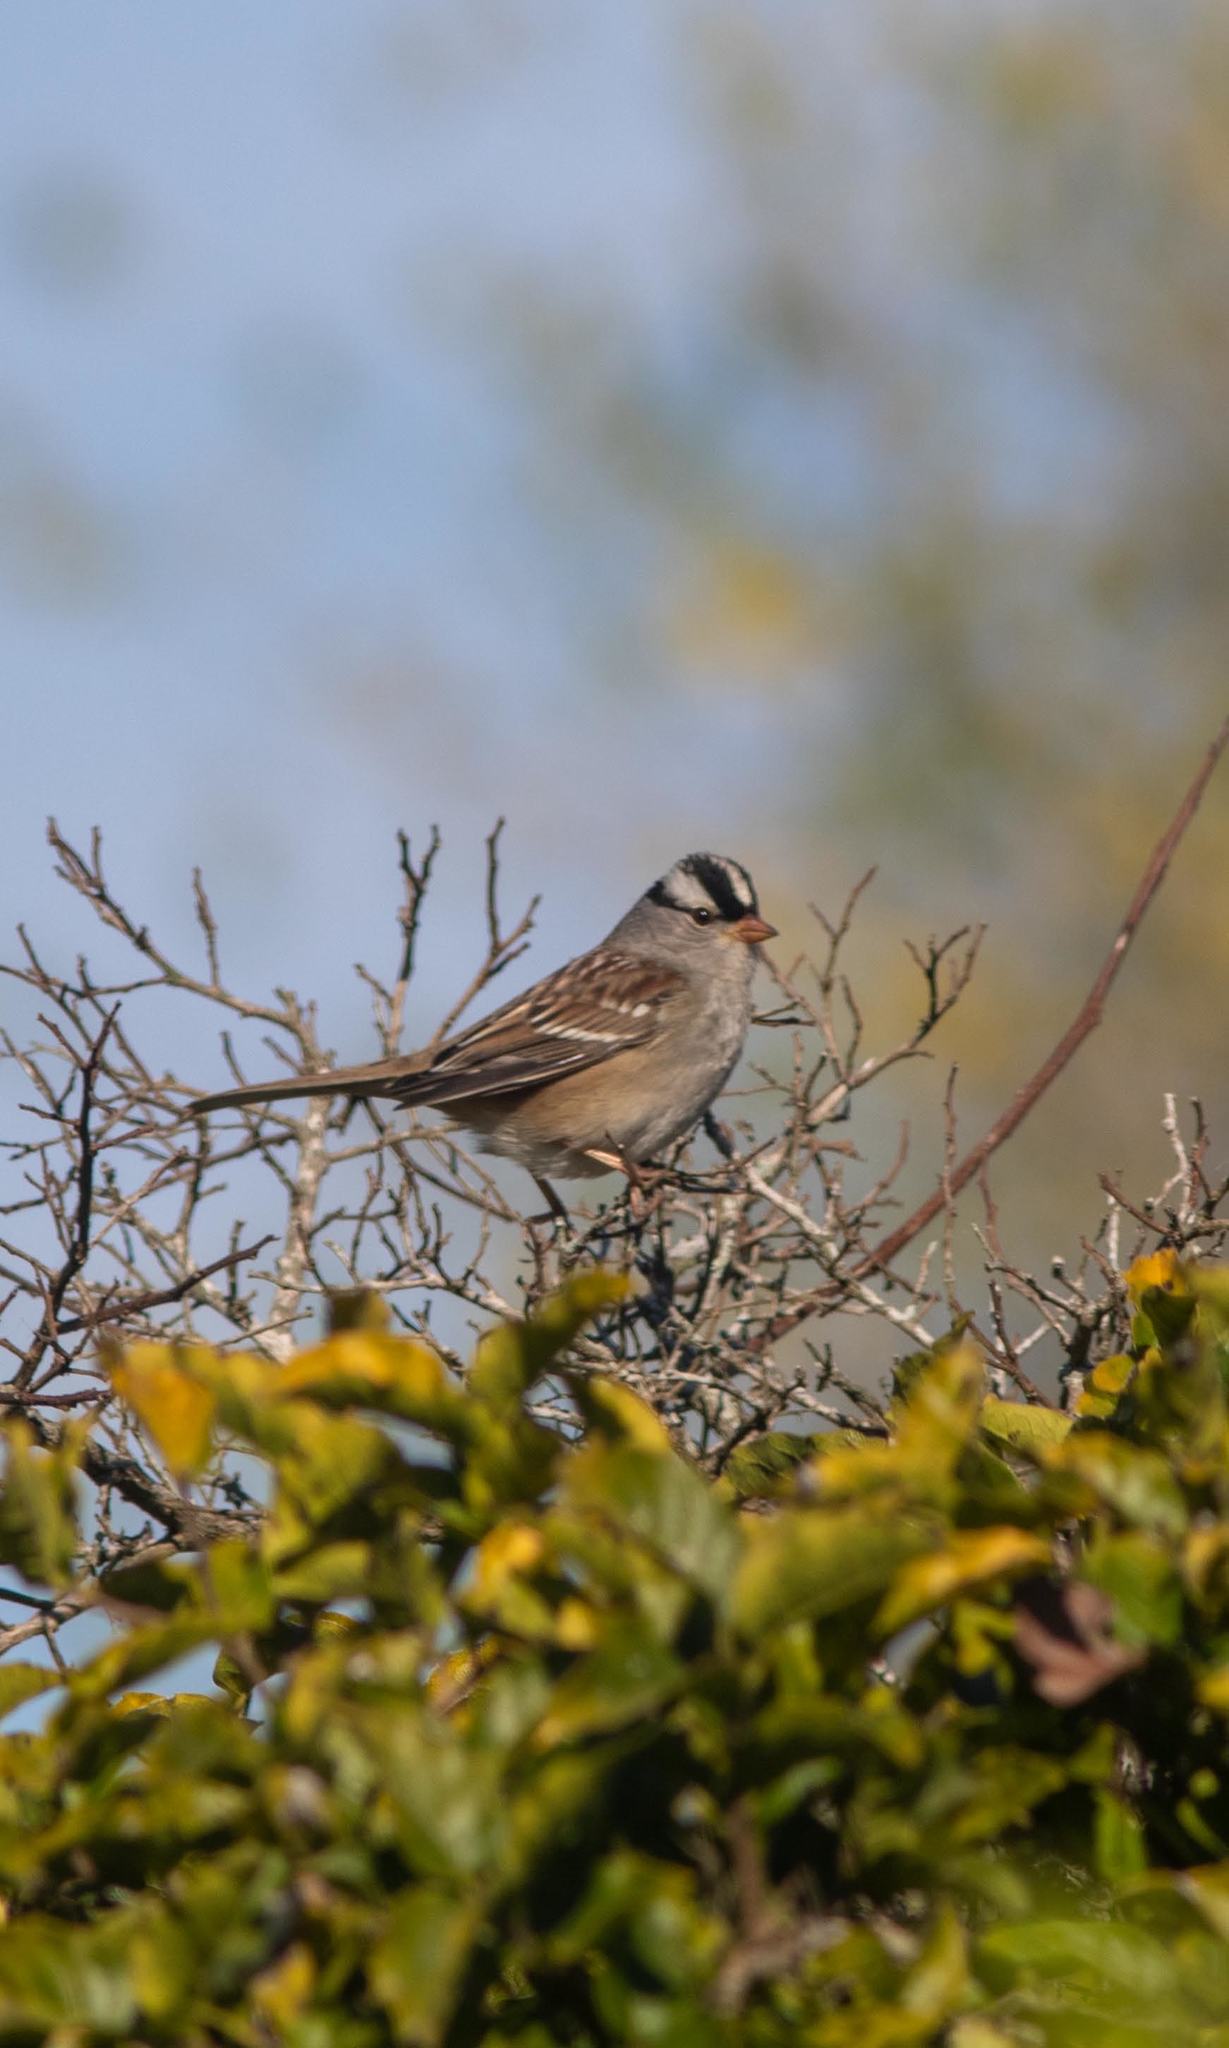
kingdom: Animalia
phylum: Chordata
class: Aves
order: Passeriformes
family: Passerellidae
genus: Zonotrichia
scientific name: Zonotrichia leucophrys
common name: White-crowned sparrow
